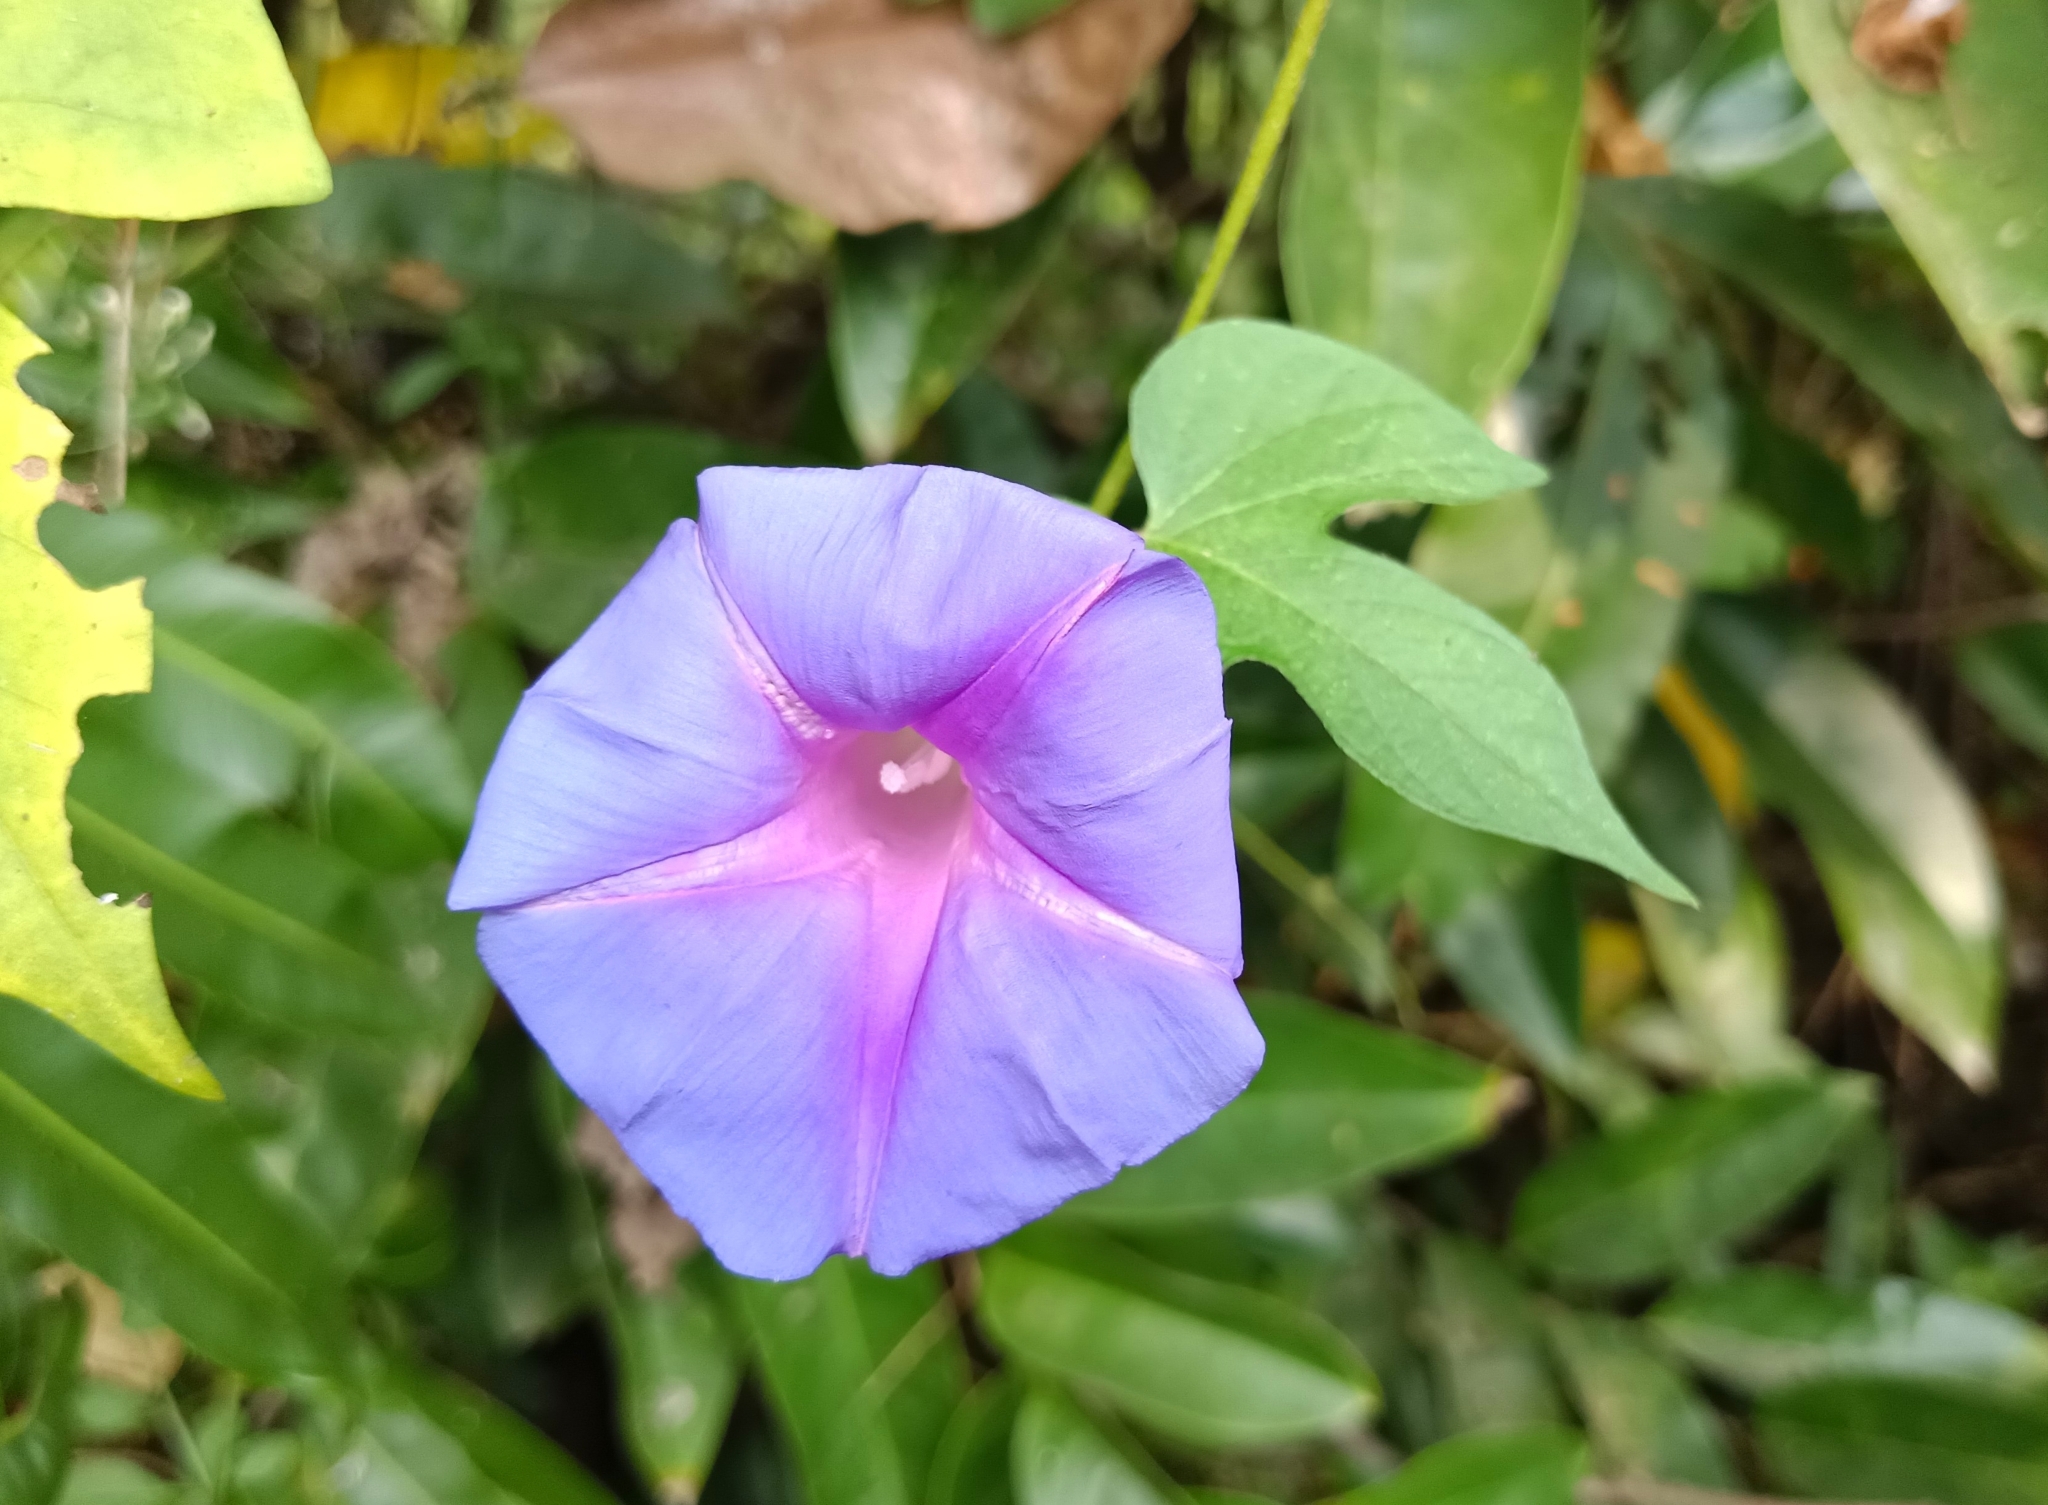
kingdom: Plantae
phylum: Tracheophyta
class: Magnoliopsida
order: Solanales
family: Convolvulaceae
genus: Ipomoea
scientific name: Ipomoea indica
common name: Blue dawnflower
